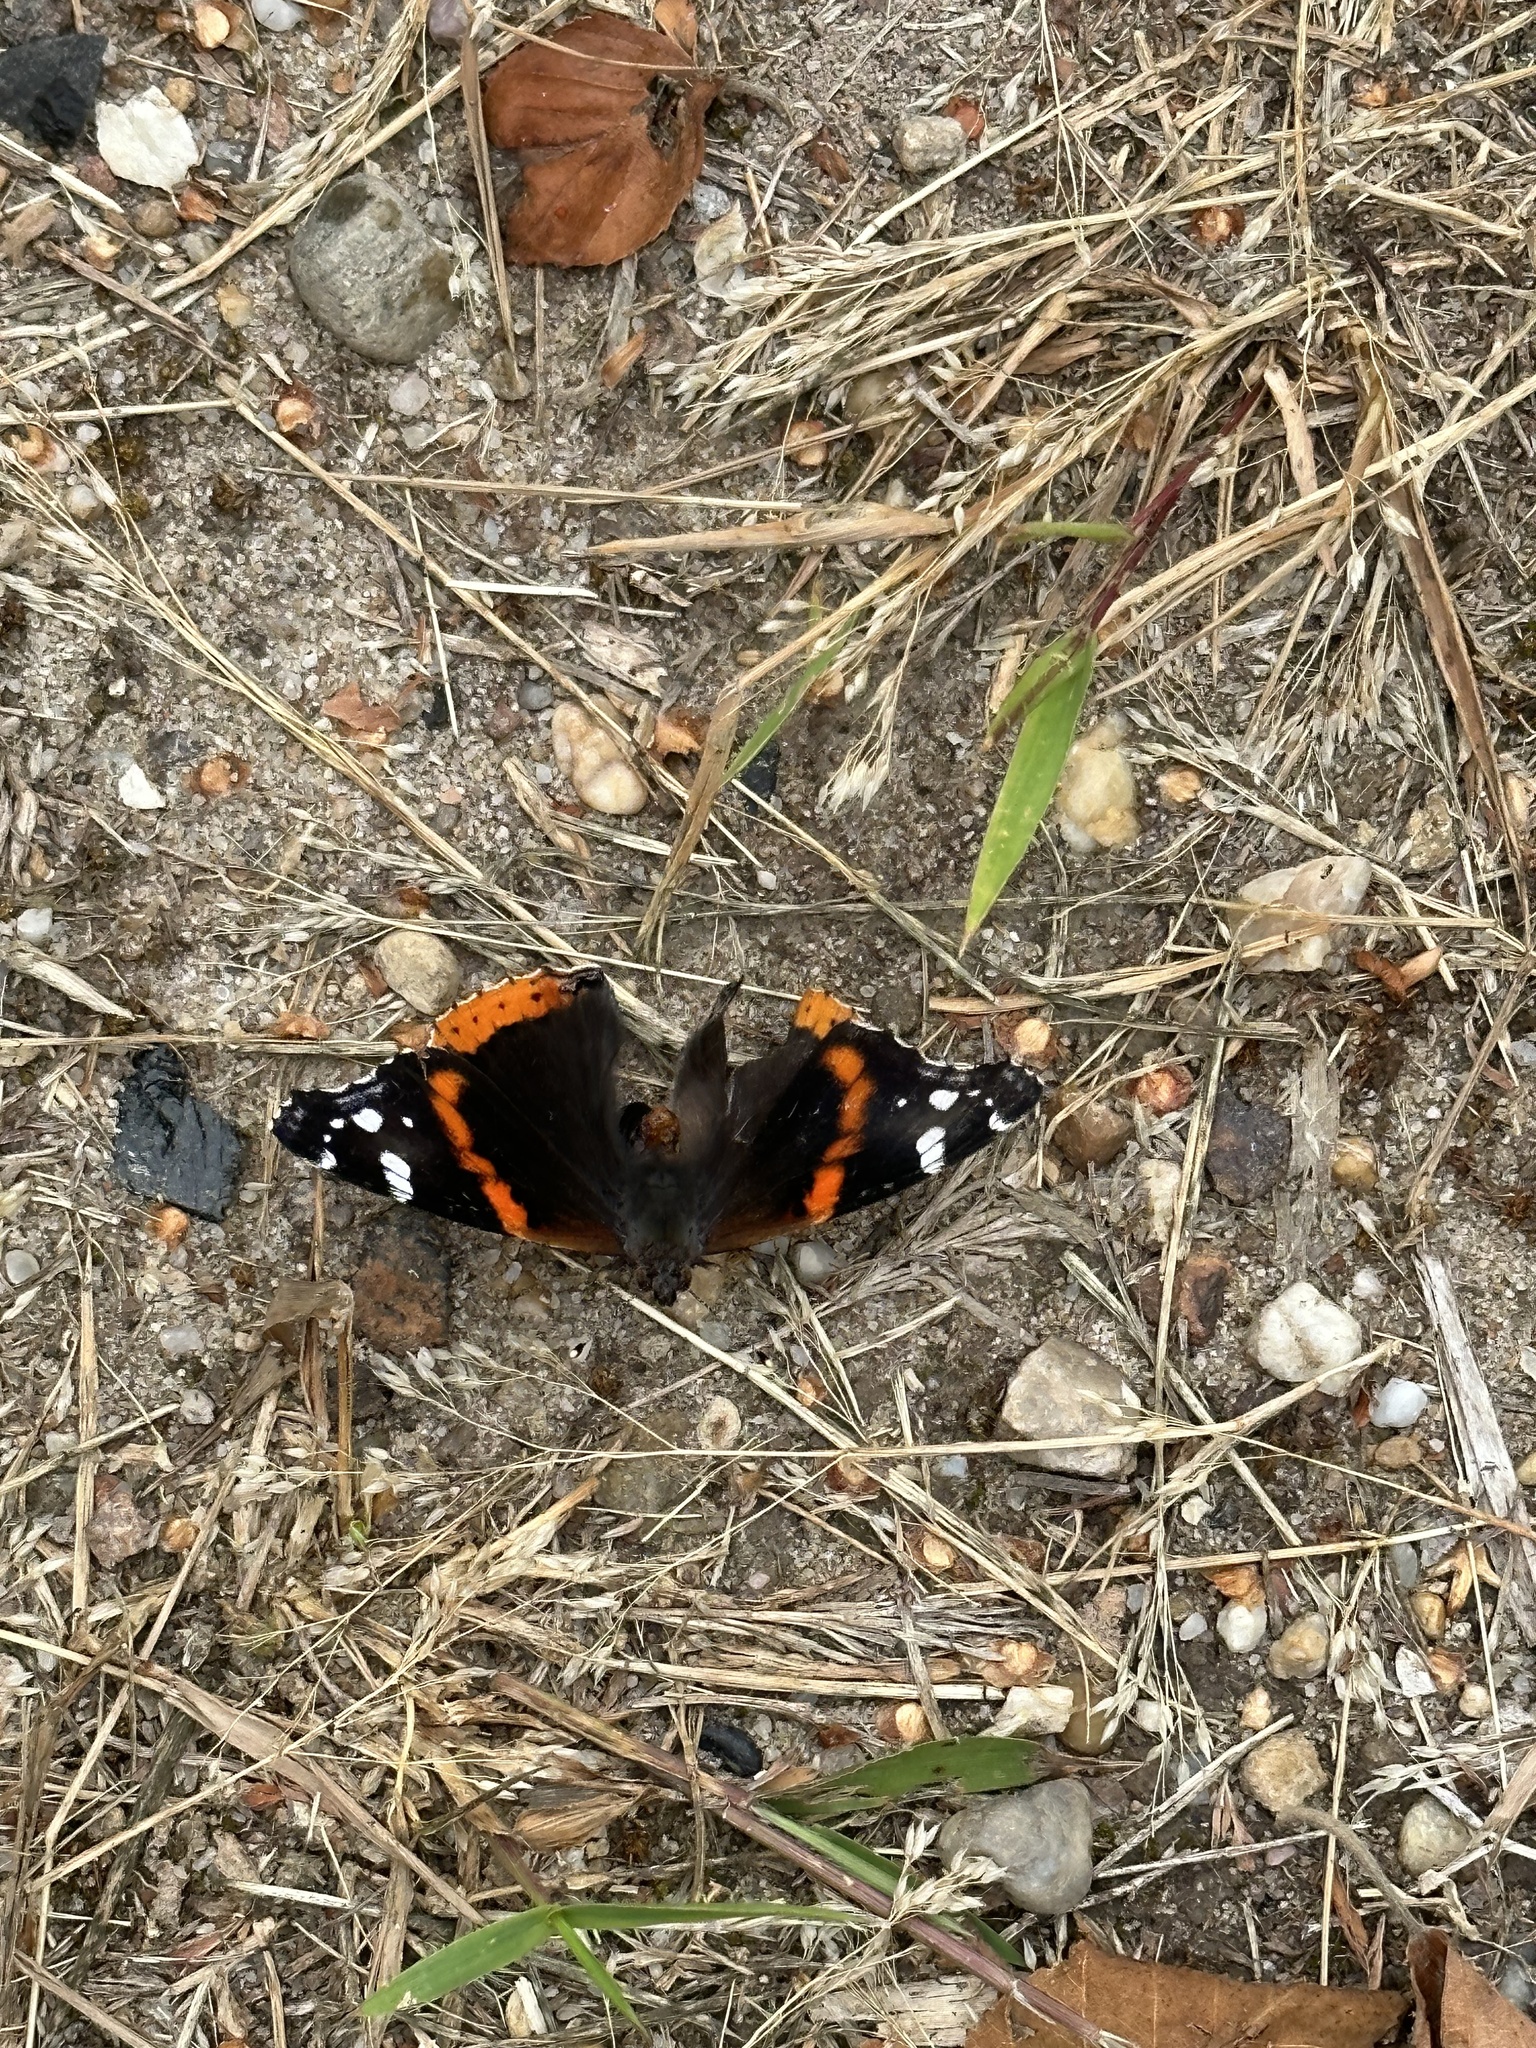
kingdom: Animalia
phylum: Arthropoda
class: Insecta
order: Lepidoptera
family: Nymphalidae
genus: Vanessa
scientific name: Vanessa atalanta
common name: Red admiral
